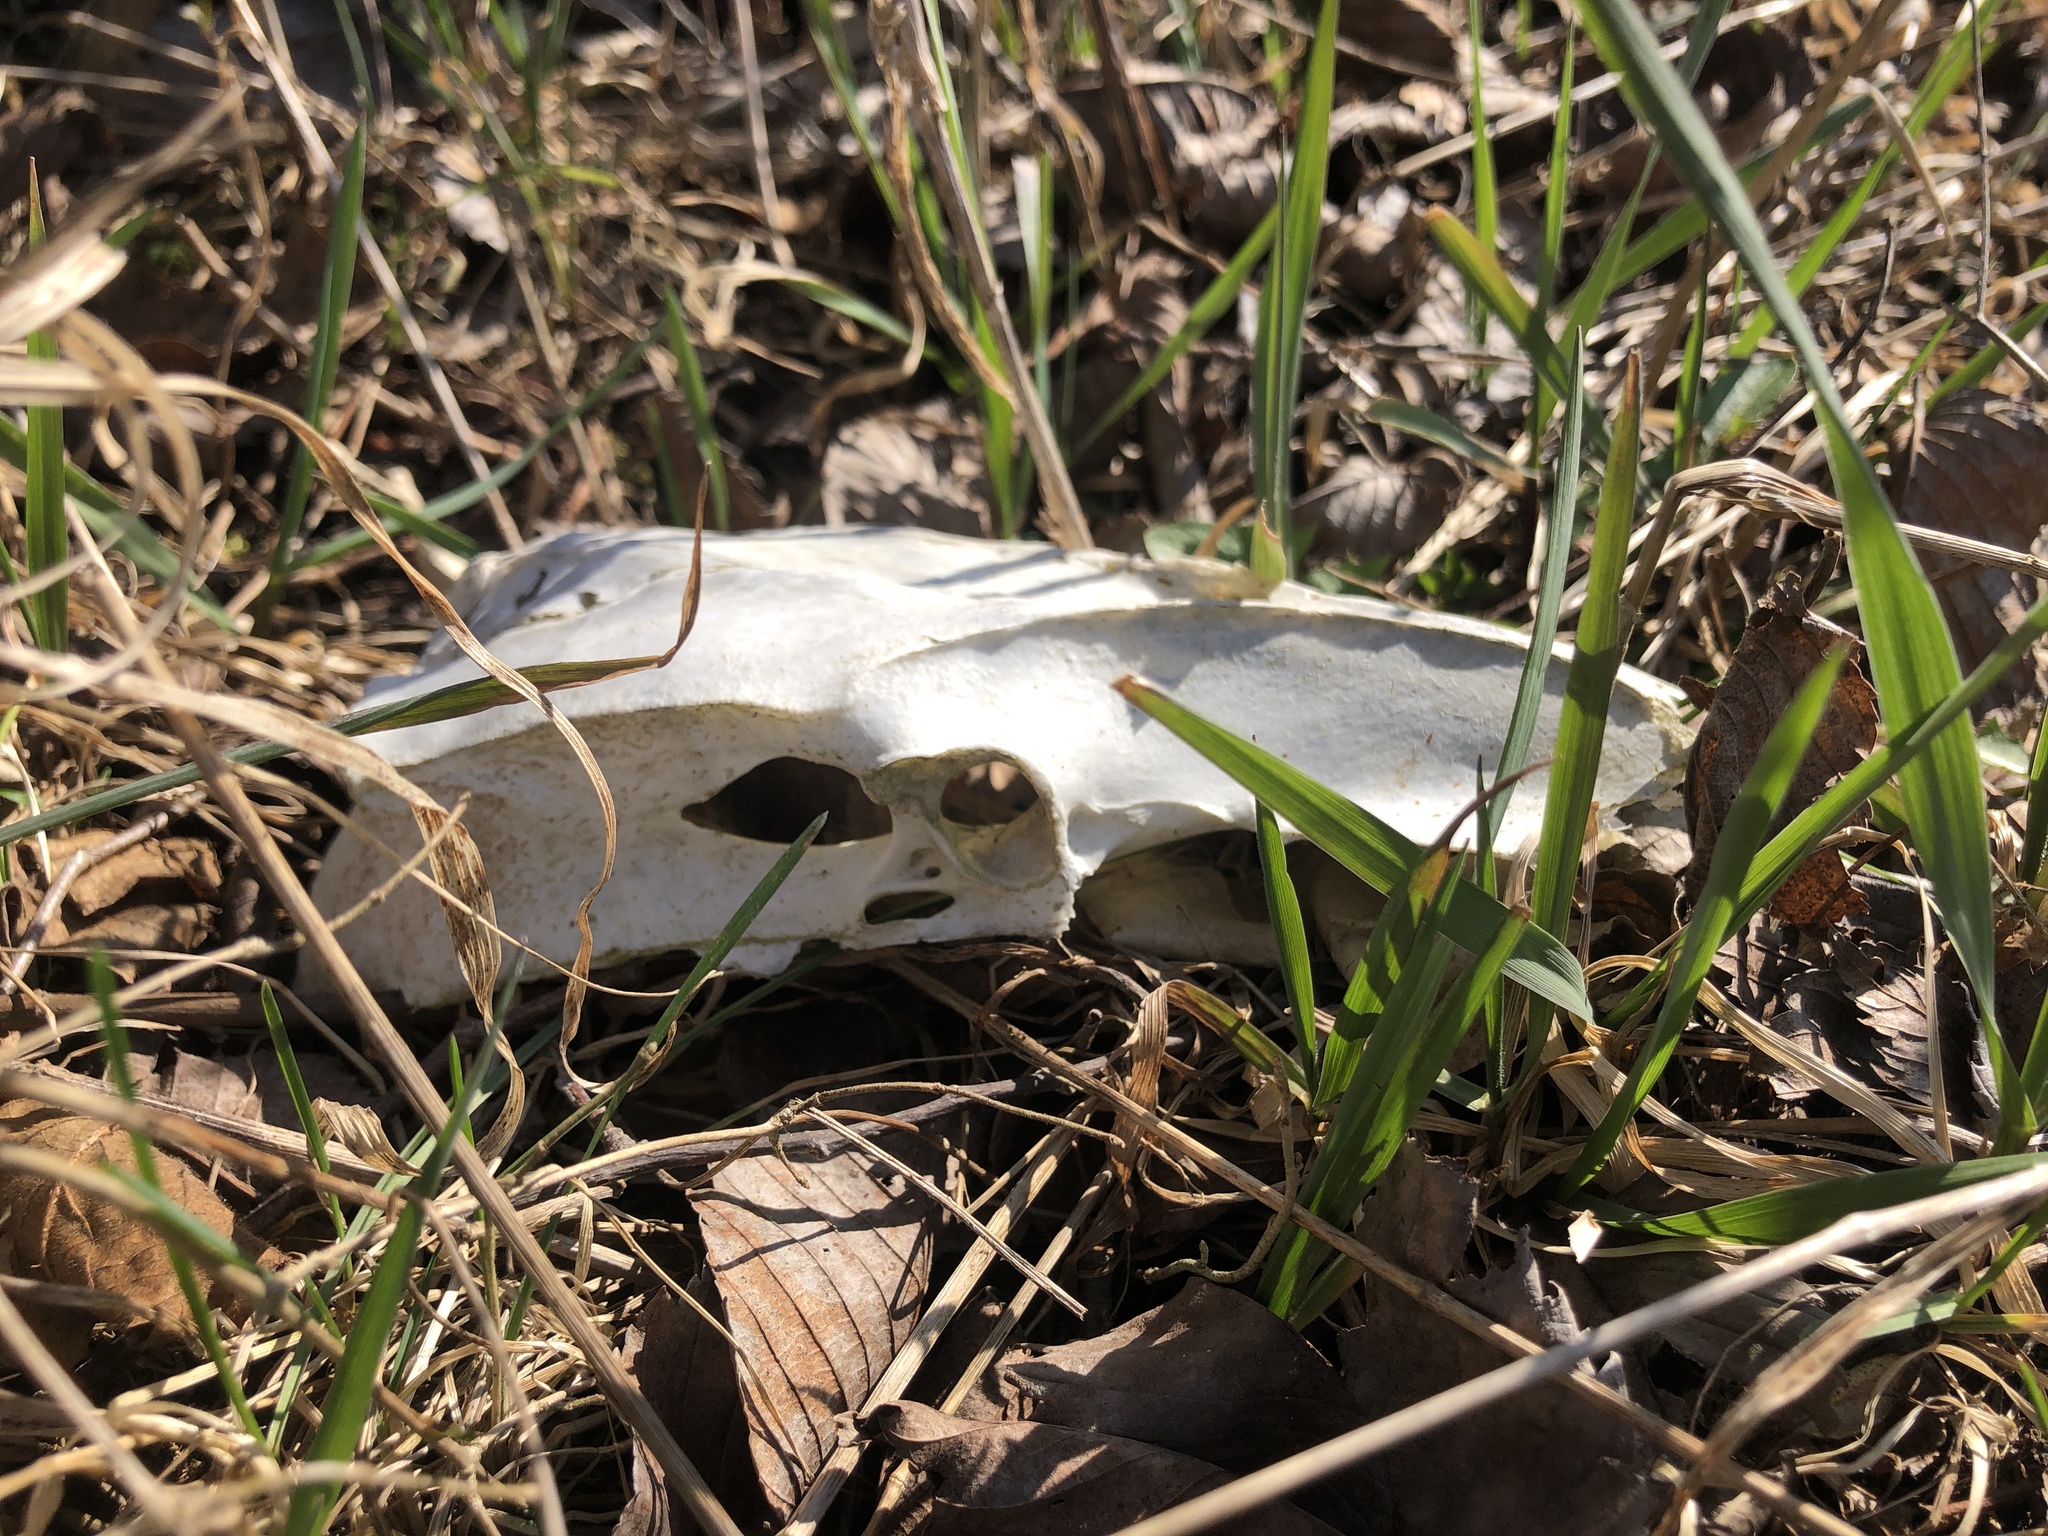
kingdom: Animalia
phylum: Chordata
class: Aves
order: Galliformes
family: Phasianidae
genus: Meleagris
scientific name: Meleagris gallopavo
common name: Wild turkey
